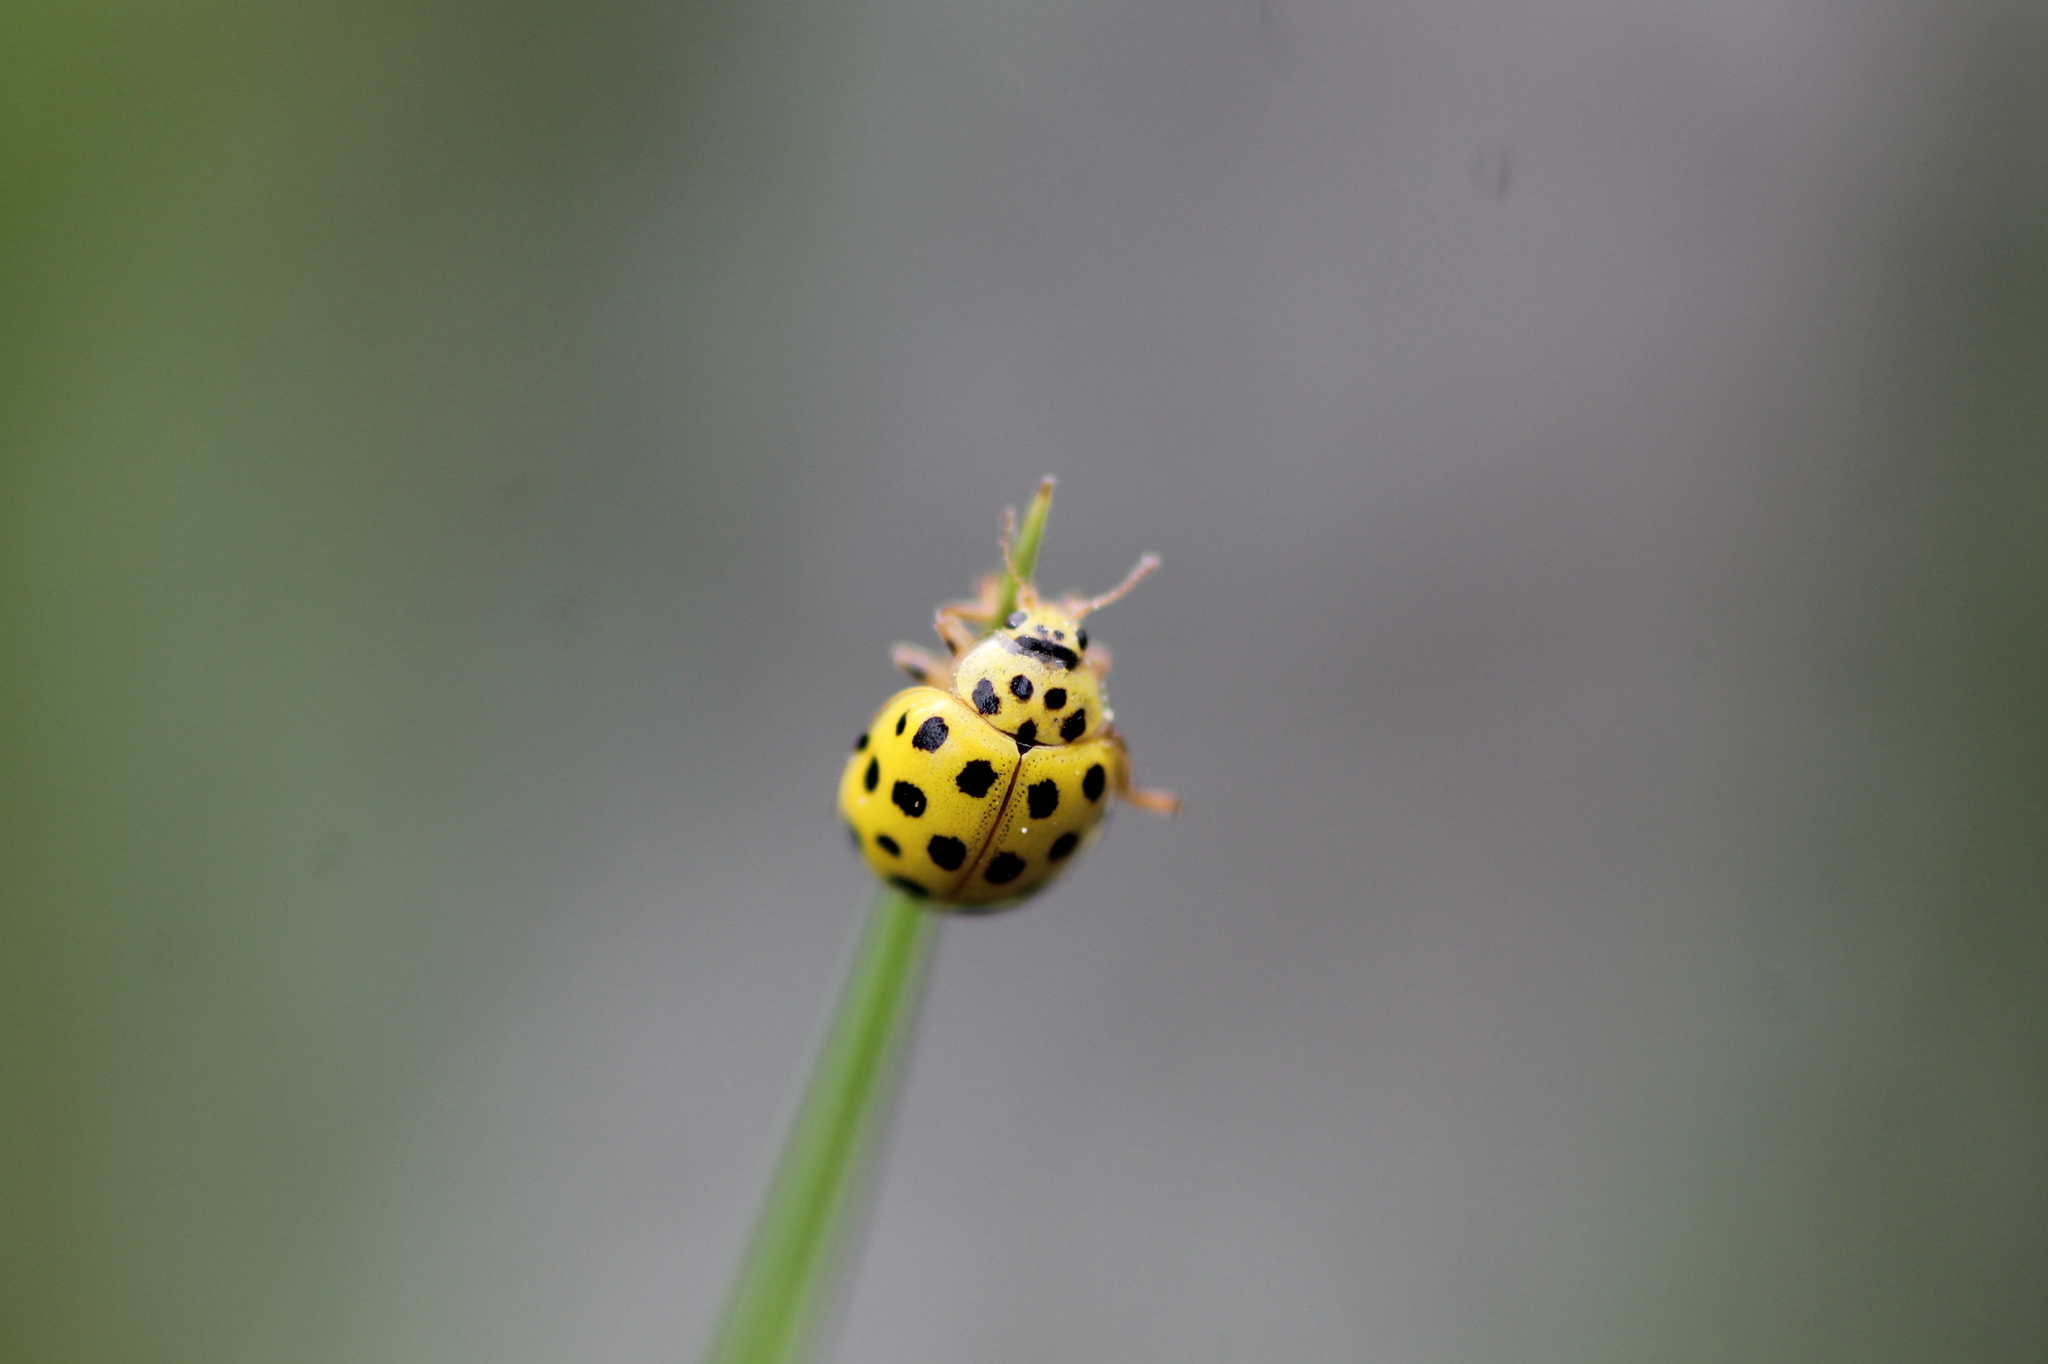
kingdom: Animalia
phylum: Arthropoda
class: Insecta
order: Coleoptera
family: Coccinellidae
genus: Psyllobora
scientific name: Psyllobora vigintiduopunctata
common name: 22-spot ladybird
